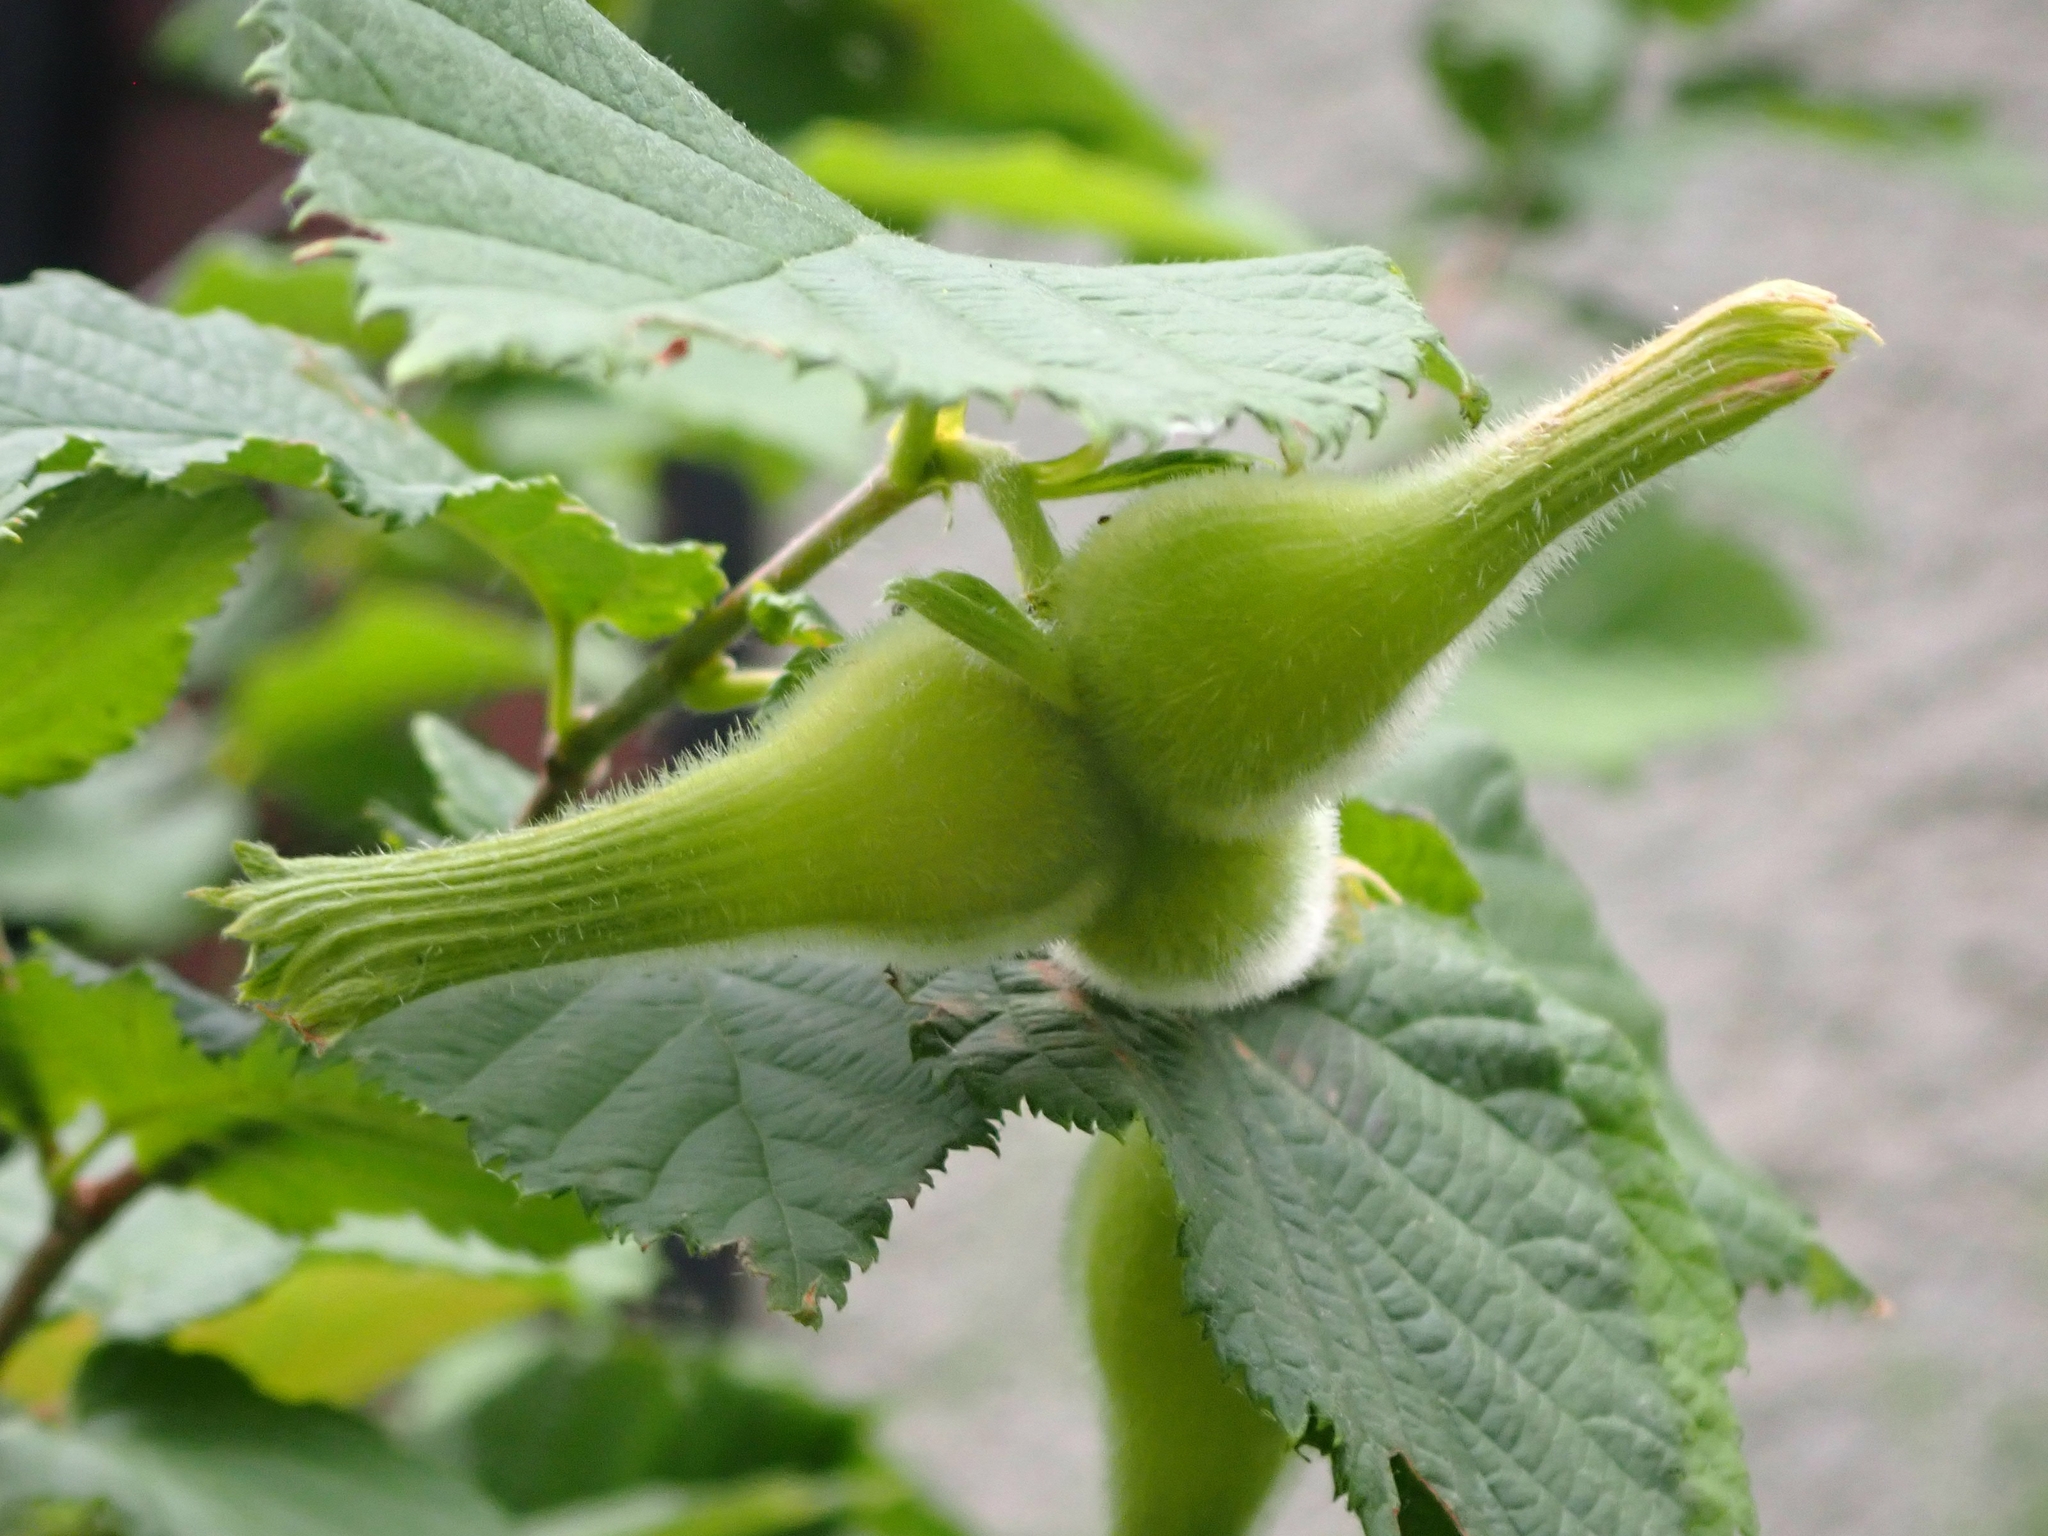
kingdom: Plantae
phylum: Tracheophyta
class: Magnoliopsida
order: Fagales
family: Betulaceae
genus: Corylus
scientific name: Corylus cornuta
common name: Beaked hazel
